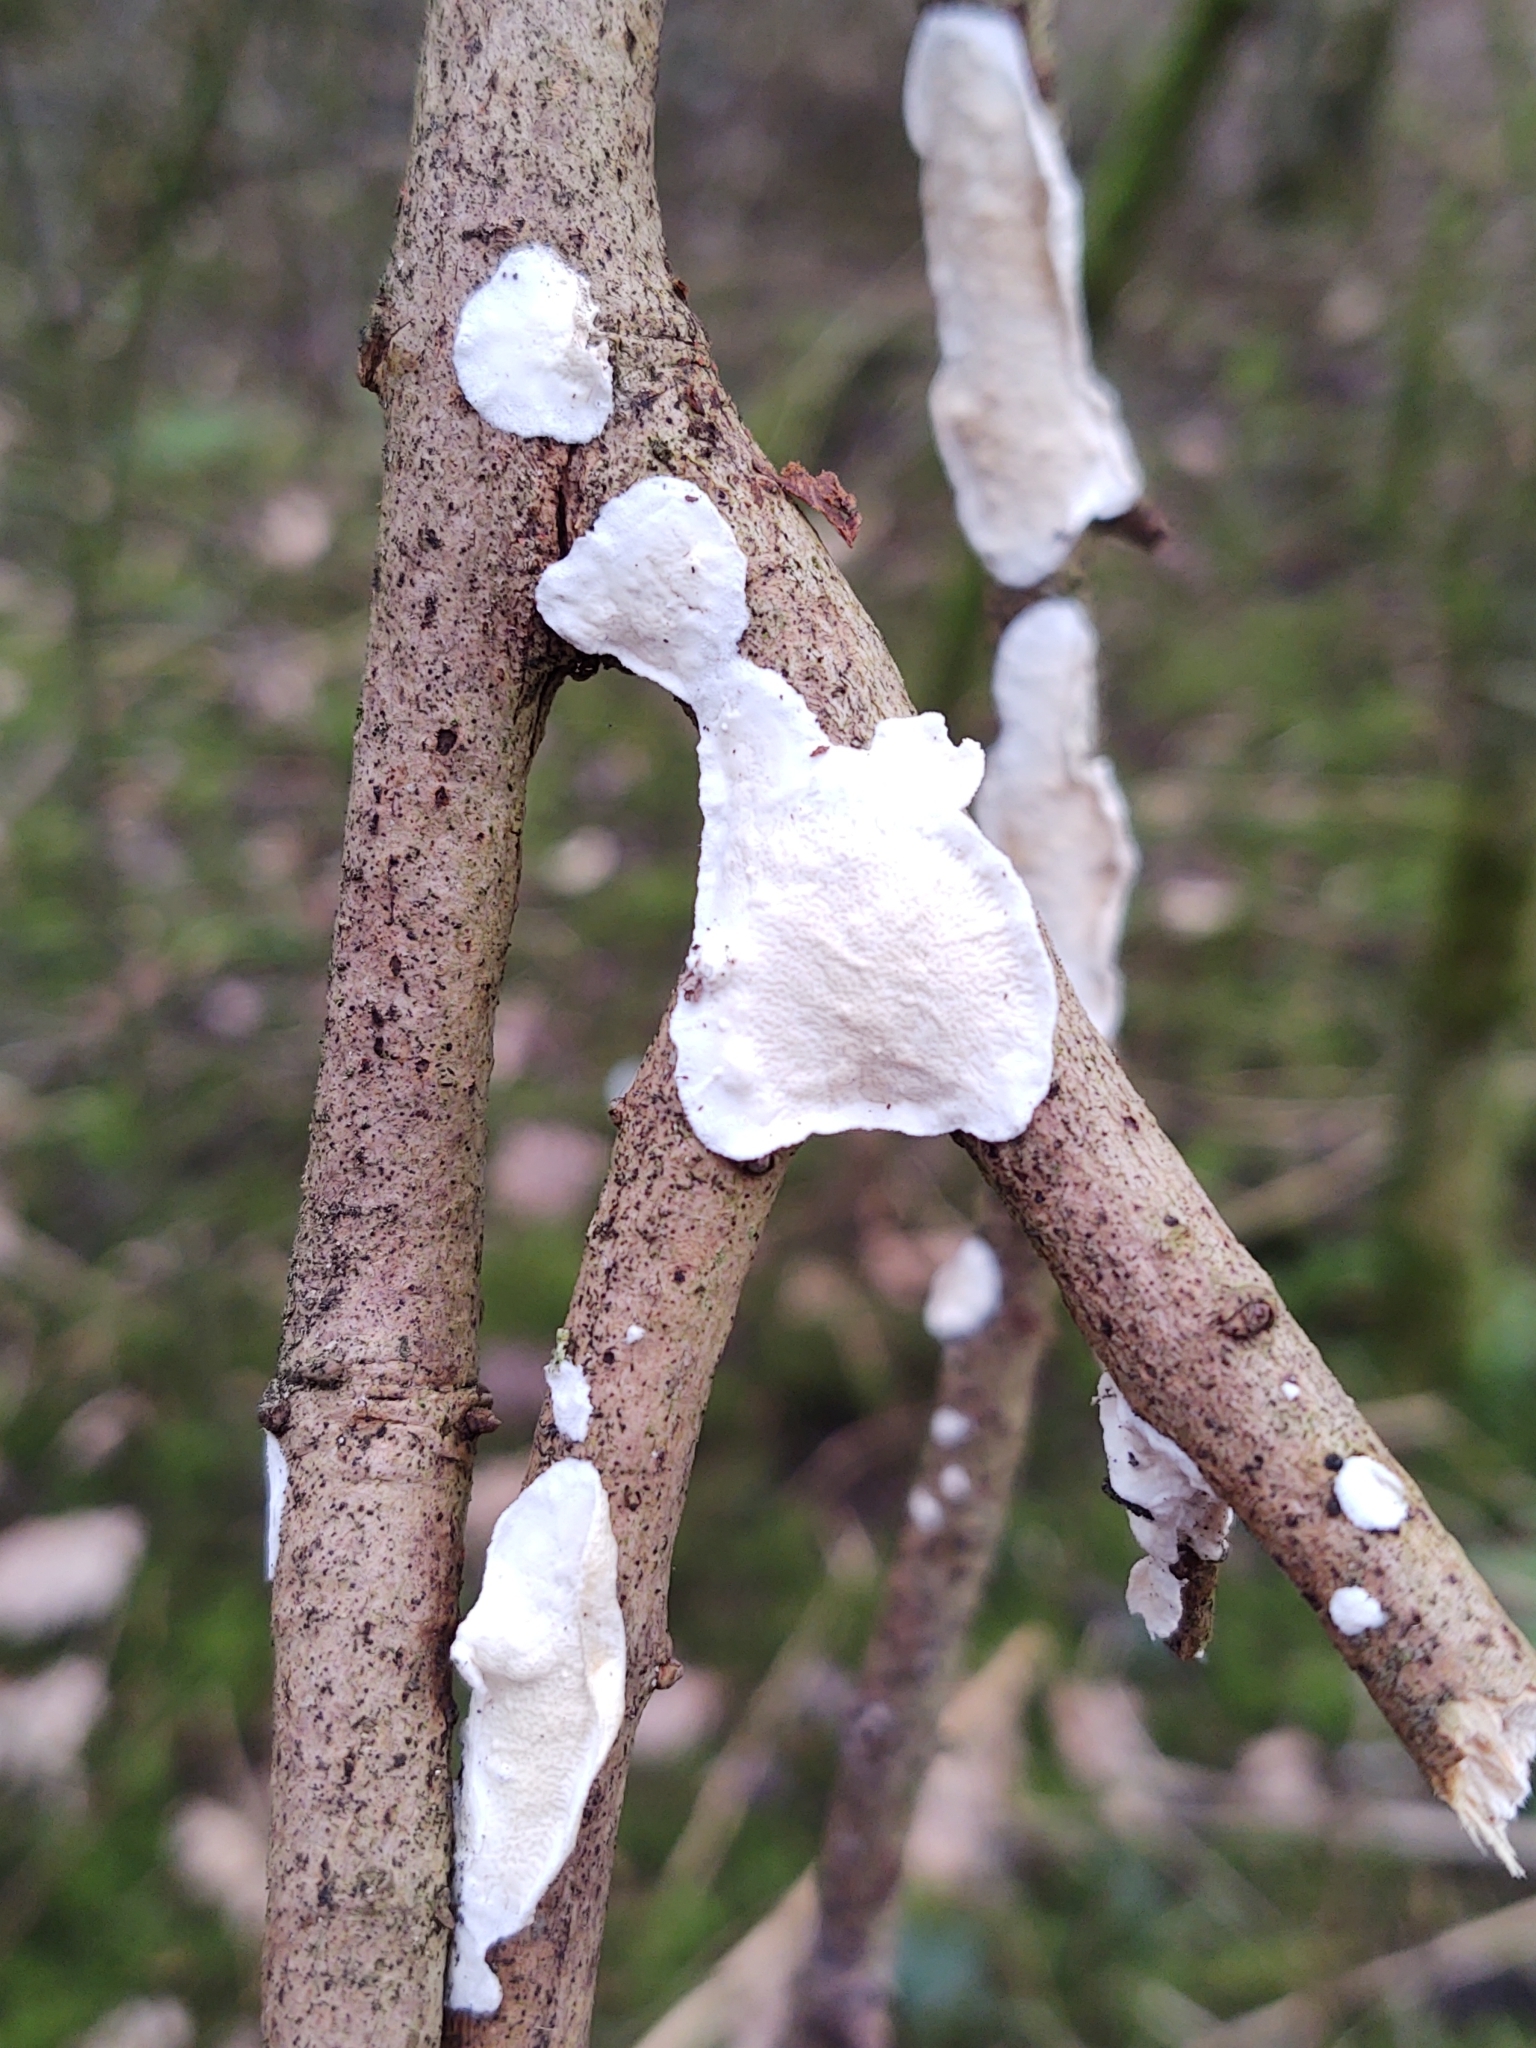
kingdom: Fungi
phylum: Basidiomycota
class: Agaricomycetes
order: Polyporales
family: Irpicaceae
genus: Byssomerulius
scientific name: Byssomerulius corium
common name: Netted crust
